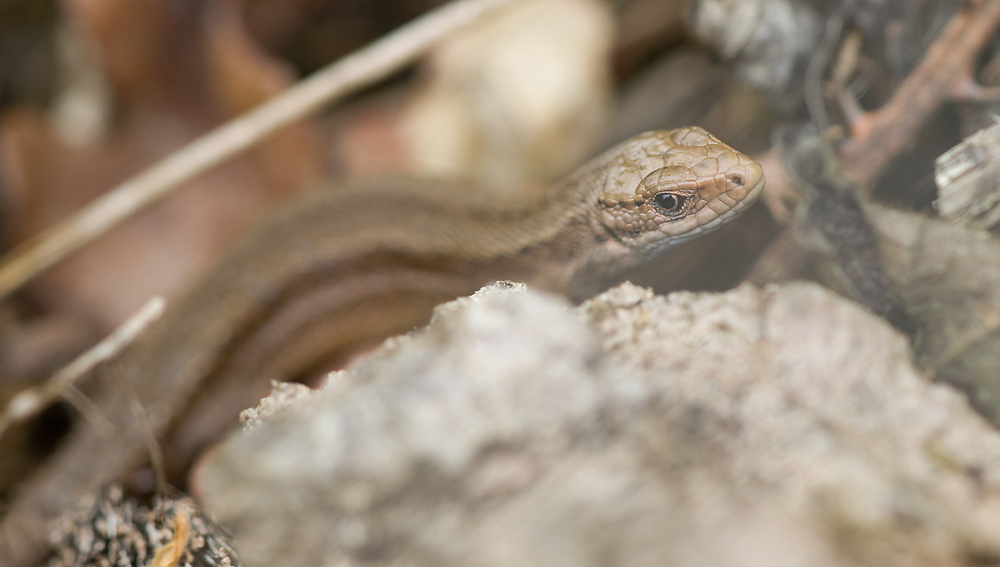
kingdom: Animalia
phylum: Chordata
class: Squamata
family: Lacertidae
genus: Zootoca
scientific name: Zootoca vivipara
